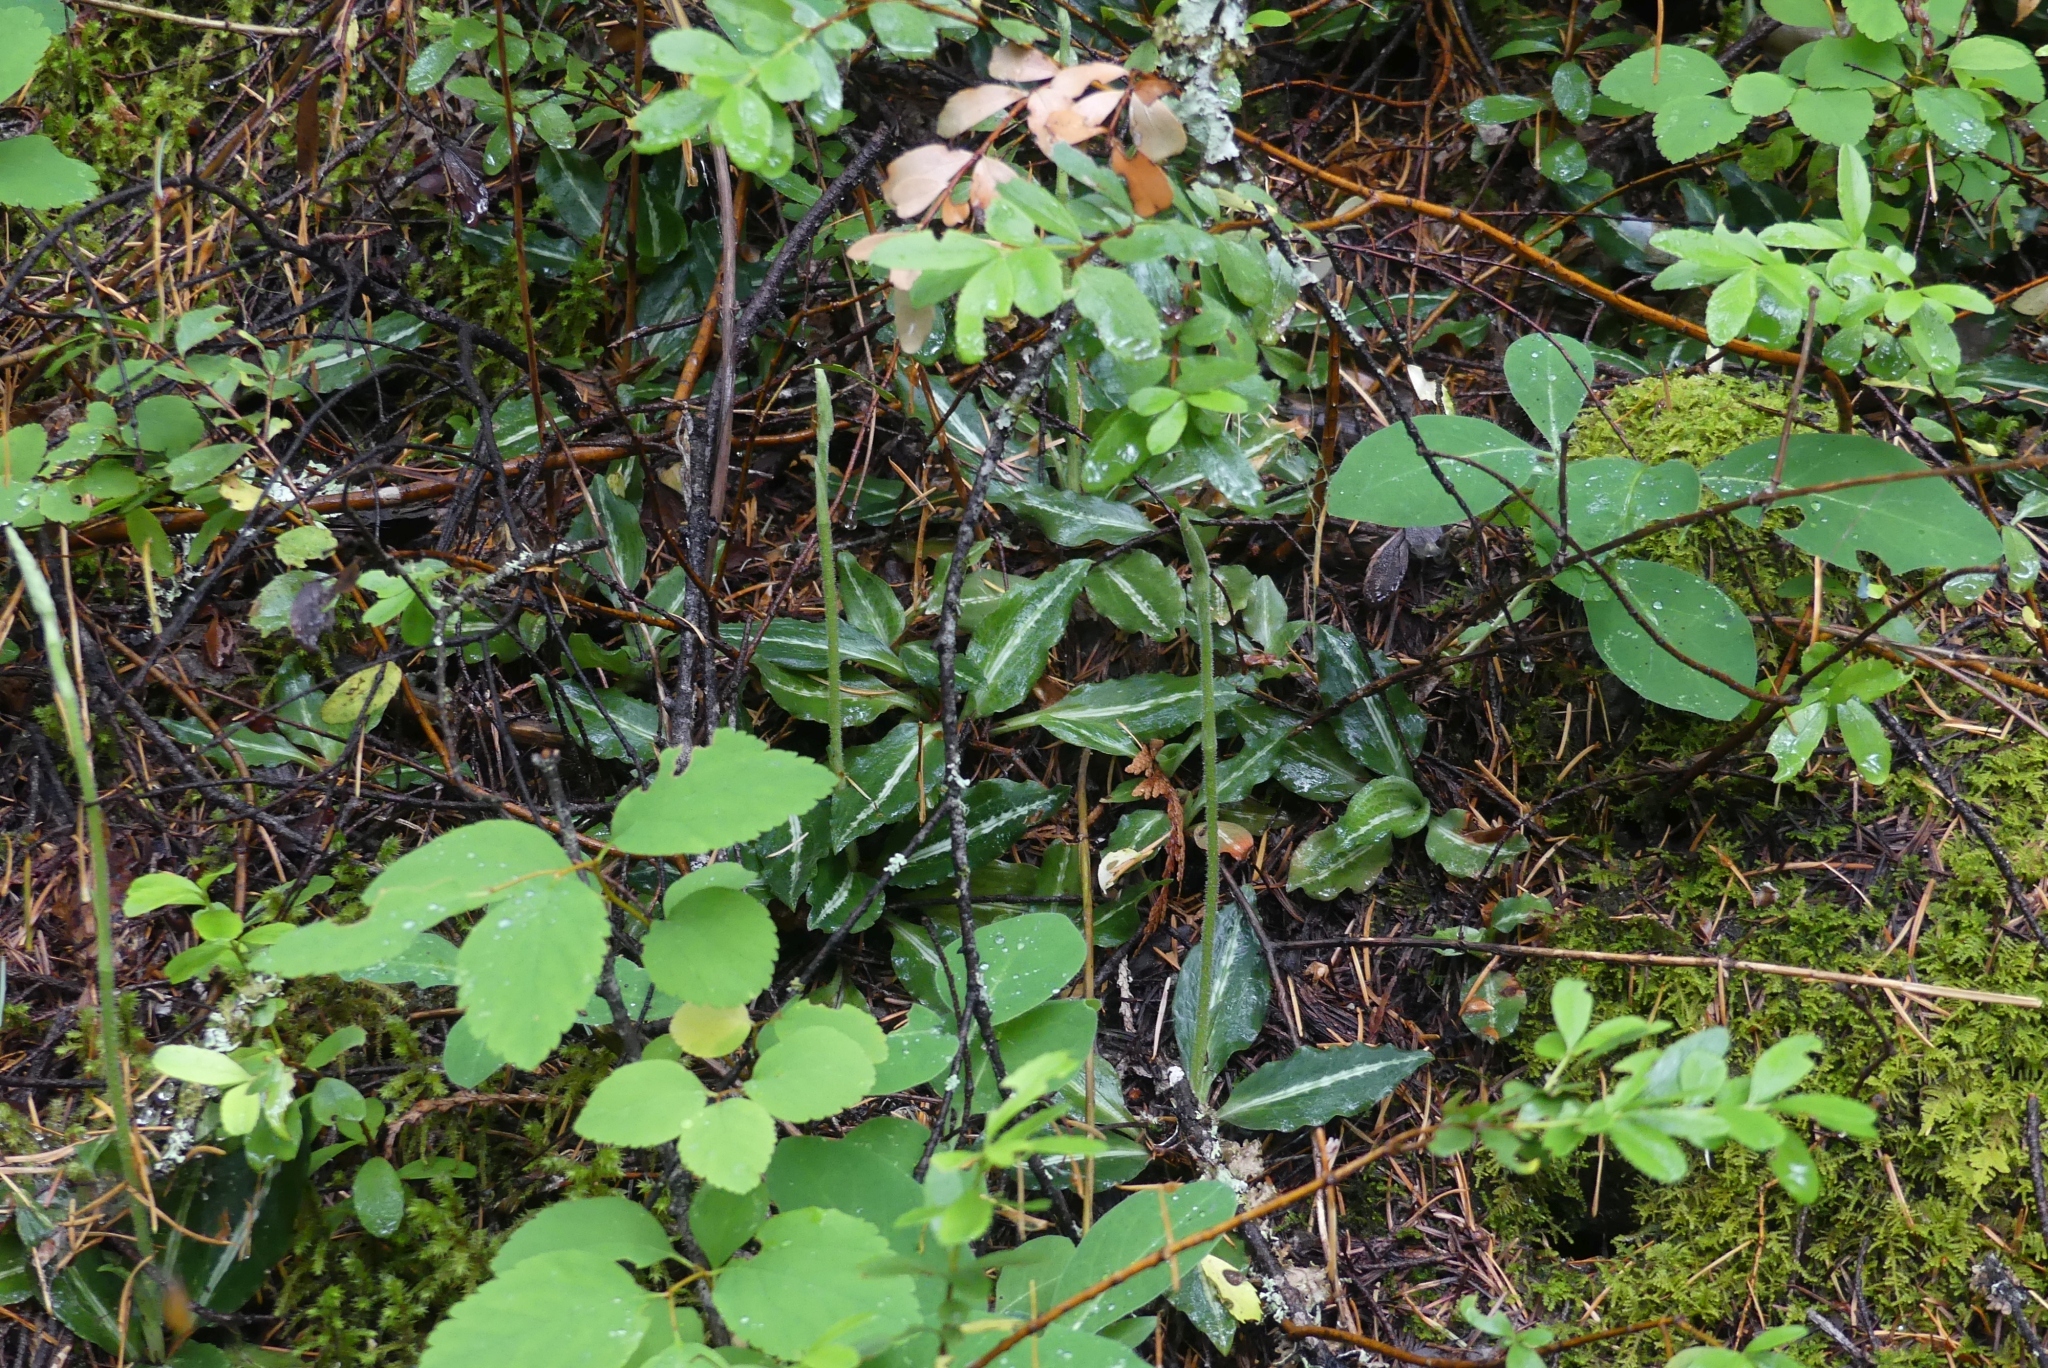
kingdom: Plantae
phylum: Tracheophyta
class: Liliopsida
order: Asparagales
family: Orchidaceae
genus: Goodyera
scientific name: Goodyera oblongifolia
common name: Giant rattlesnake-plantain
